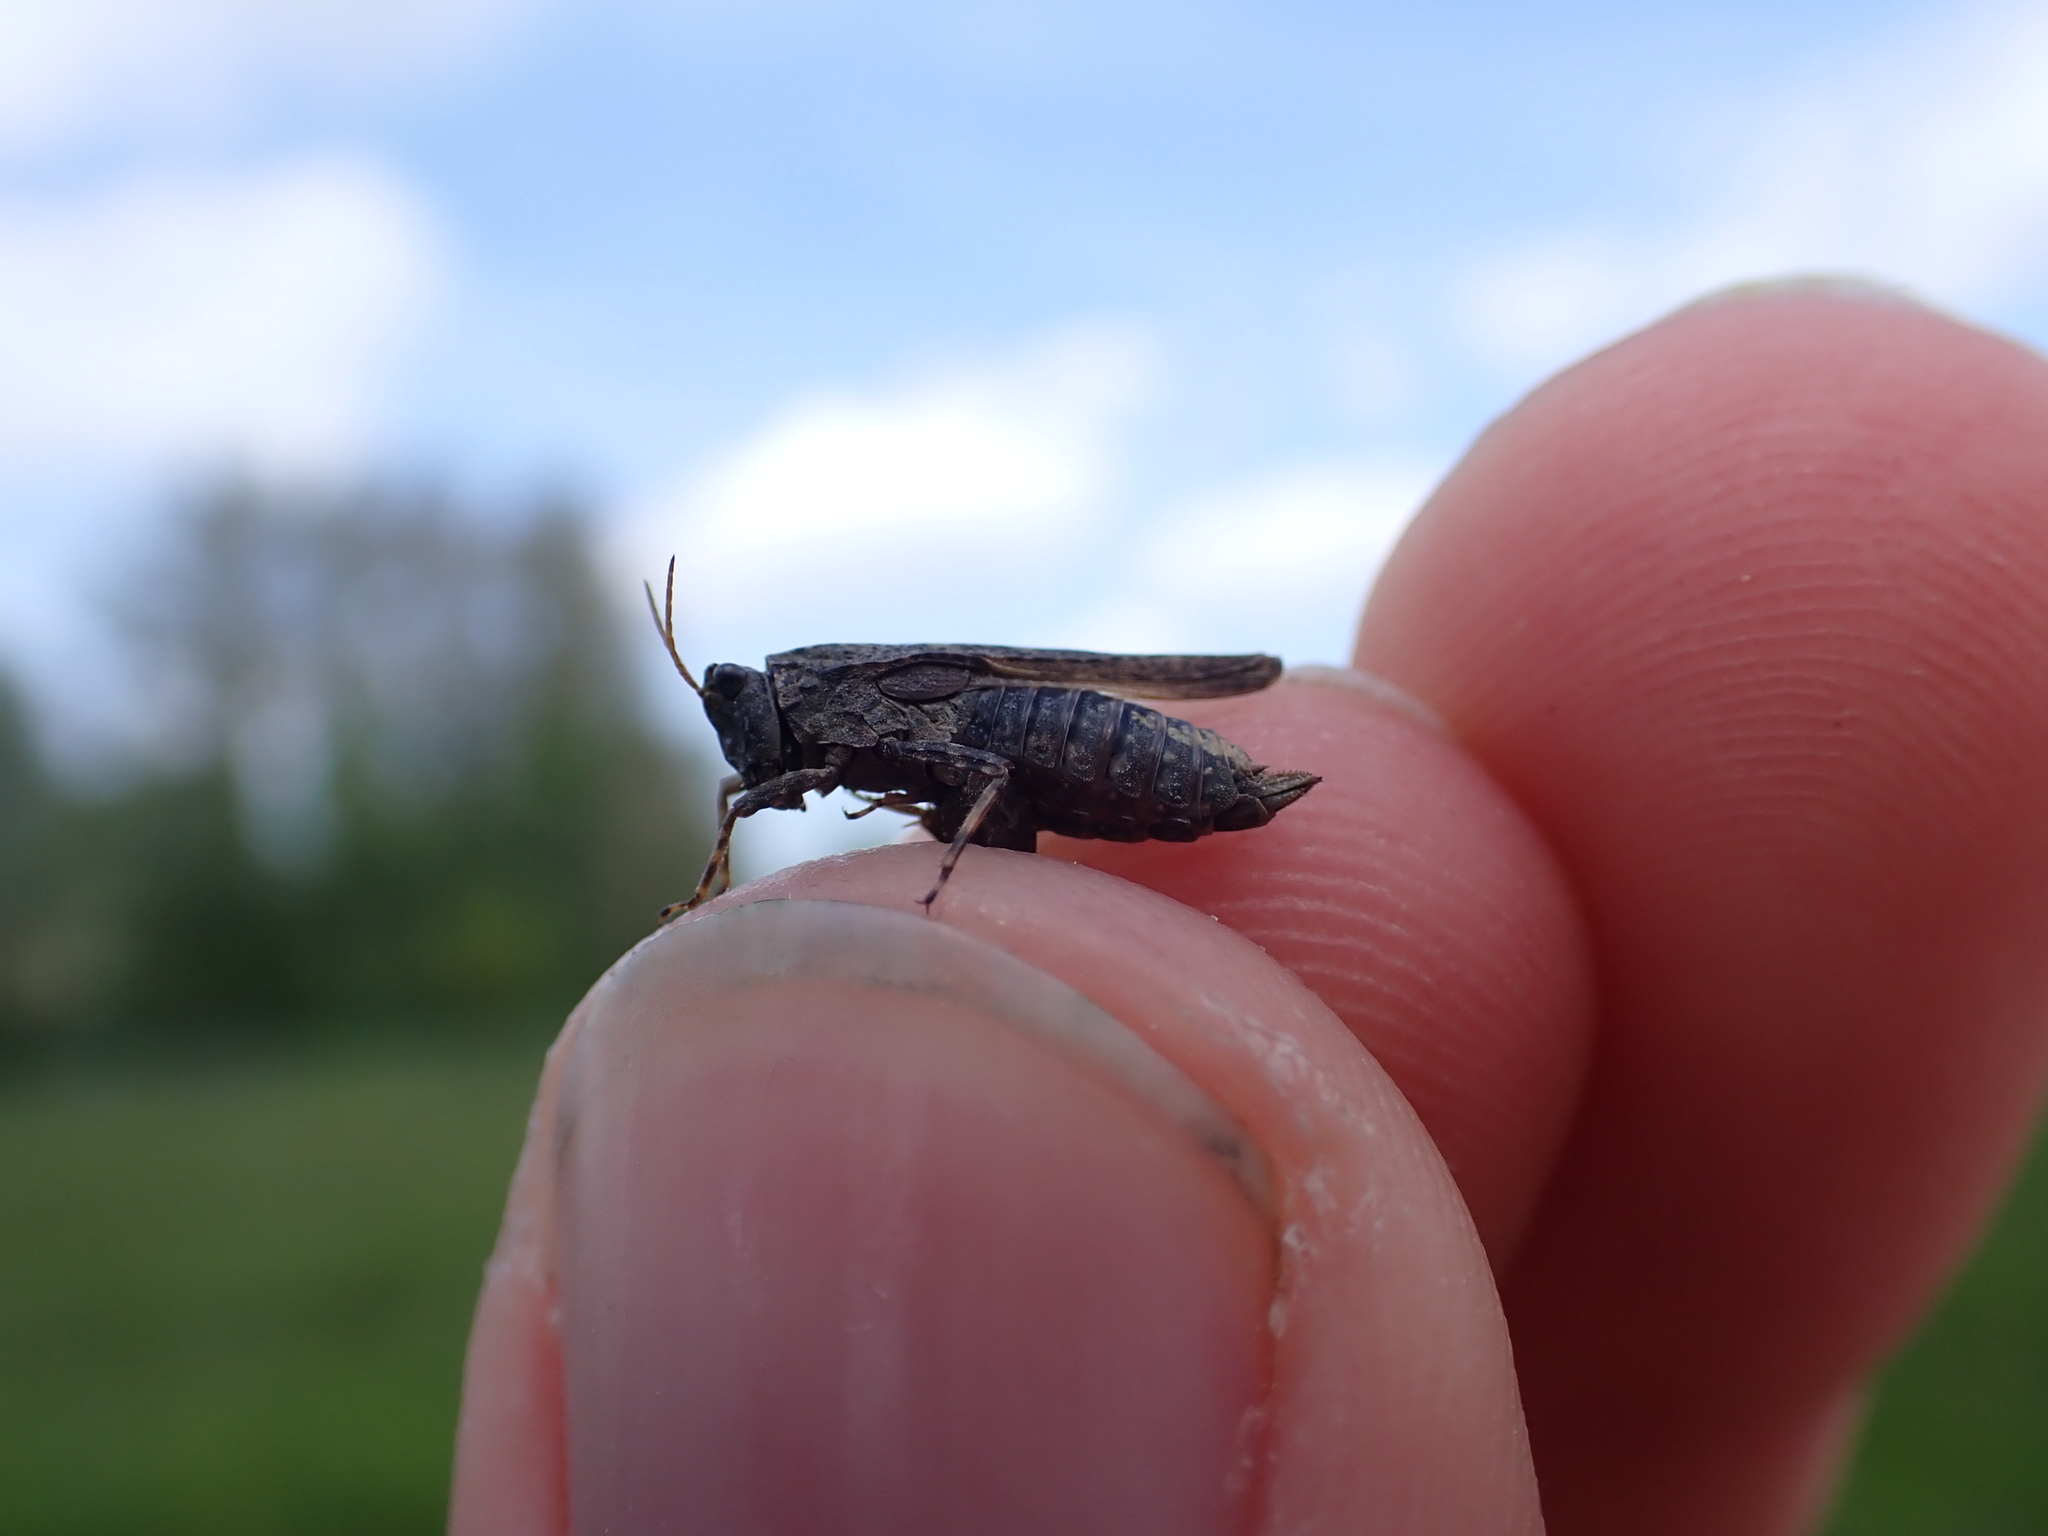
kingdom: Animalia
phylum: Arthropoda
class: Insecta
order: Orthoptera
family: Tetrigidae
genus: Tetrix
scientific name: Tetrix subulata
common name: Slender ground-hopper
